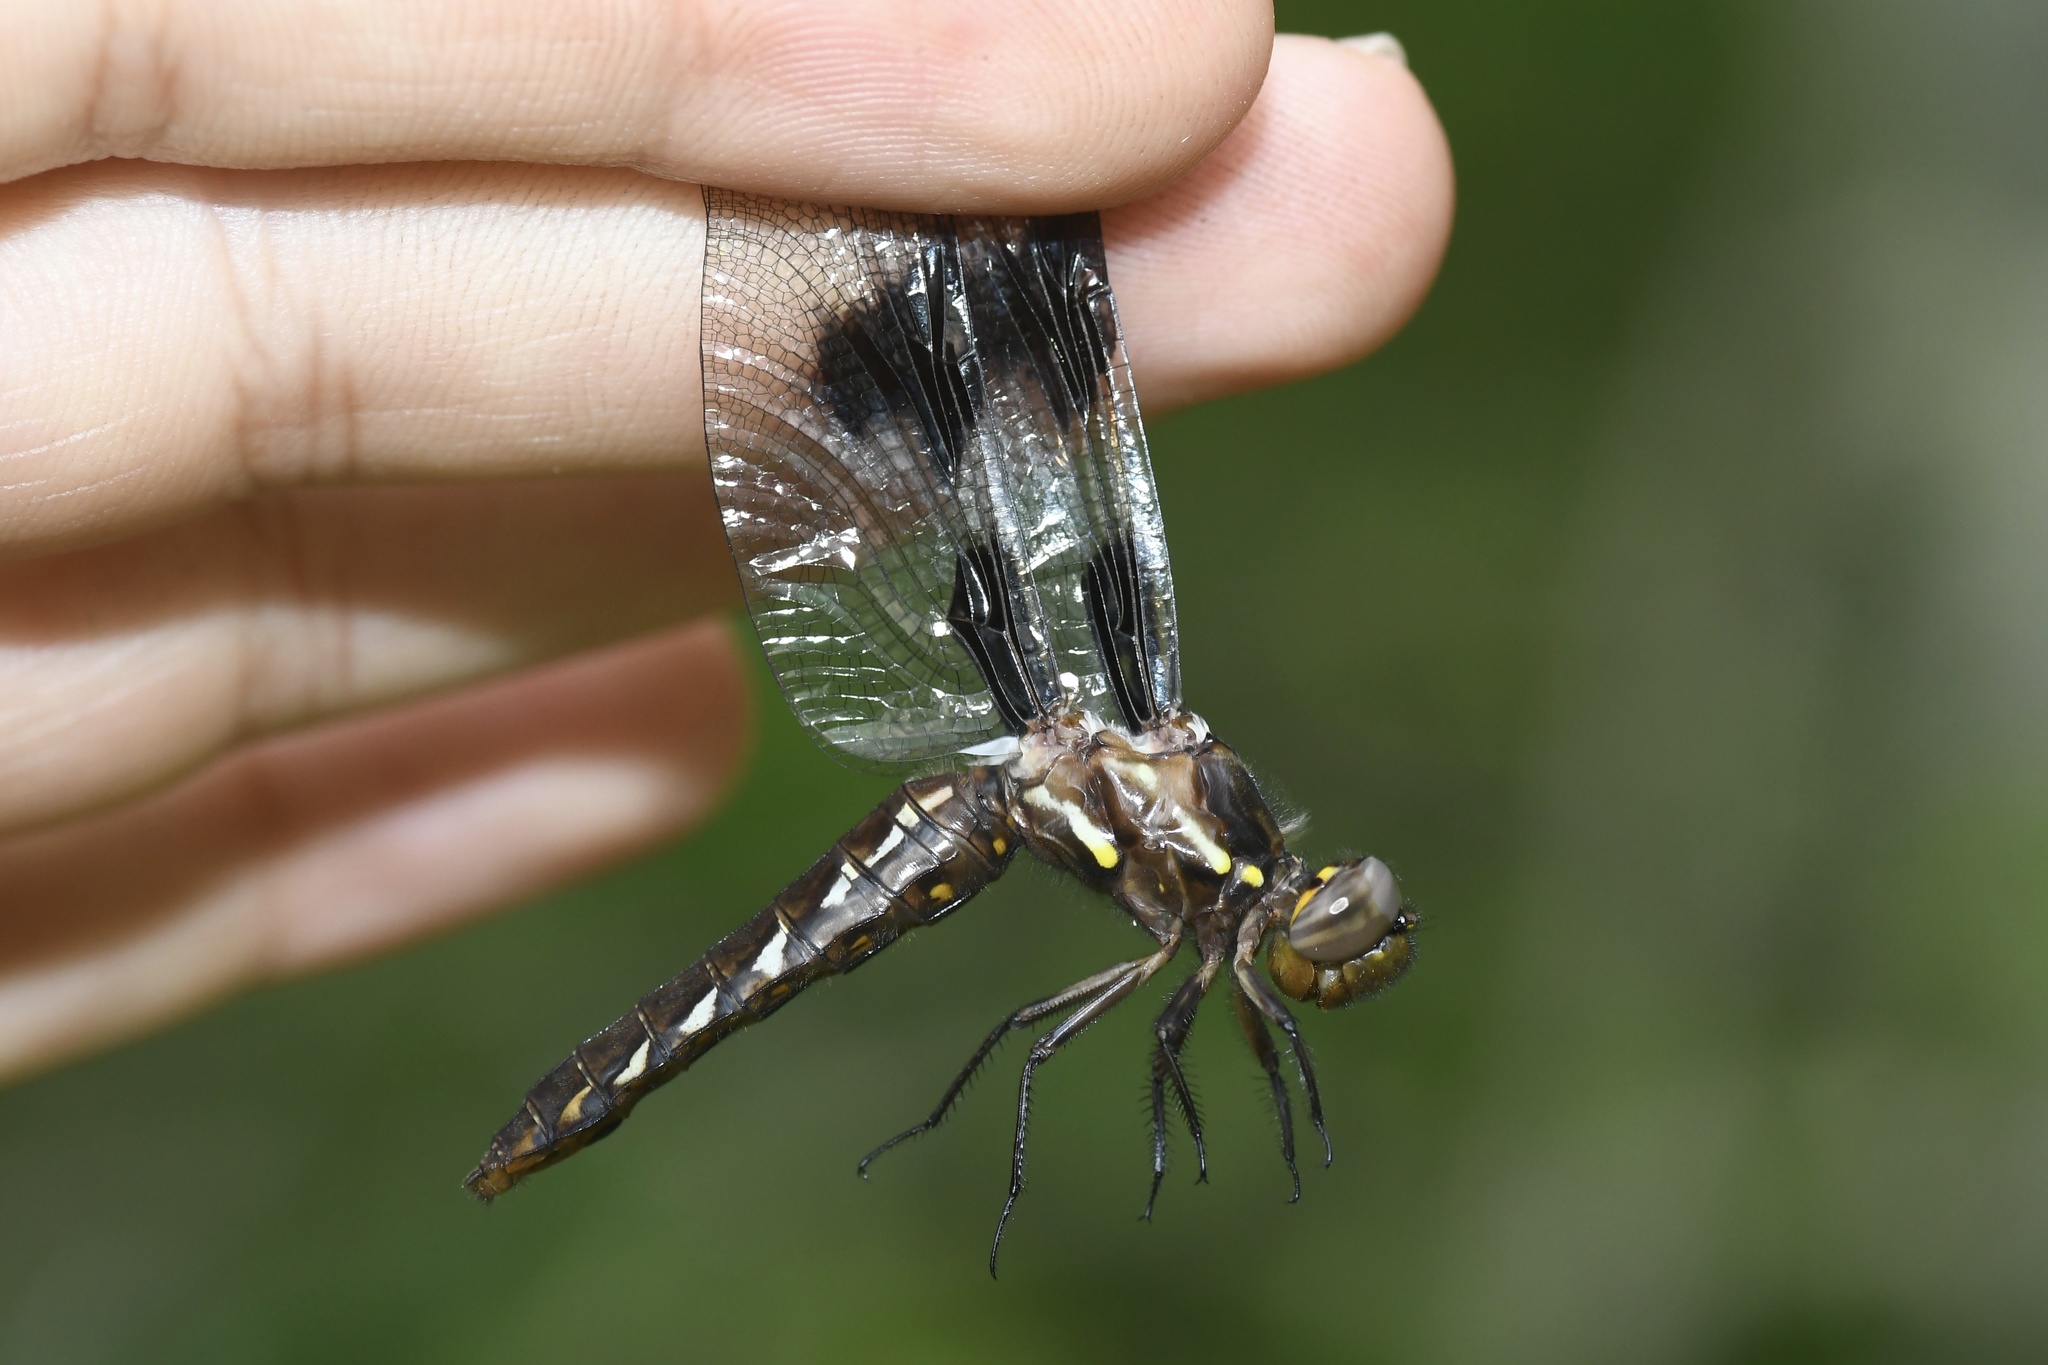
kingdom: Animalia
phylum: Arthropoda
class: Insecta
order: Odonata
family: Libellulidae
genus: Plathemis
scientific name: Plathemis lydia
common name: Common whitetail
